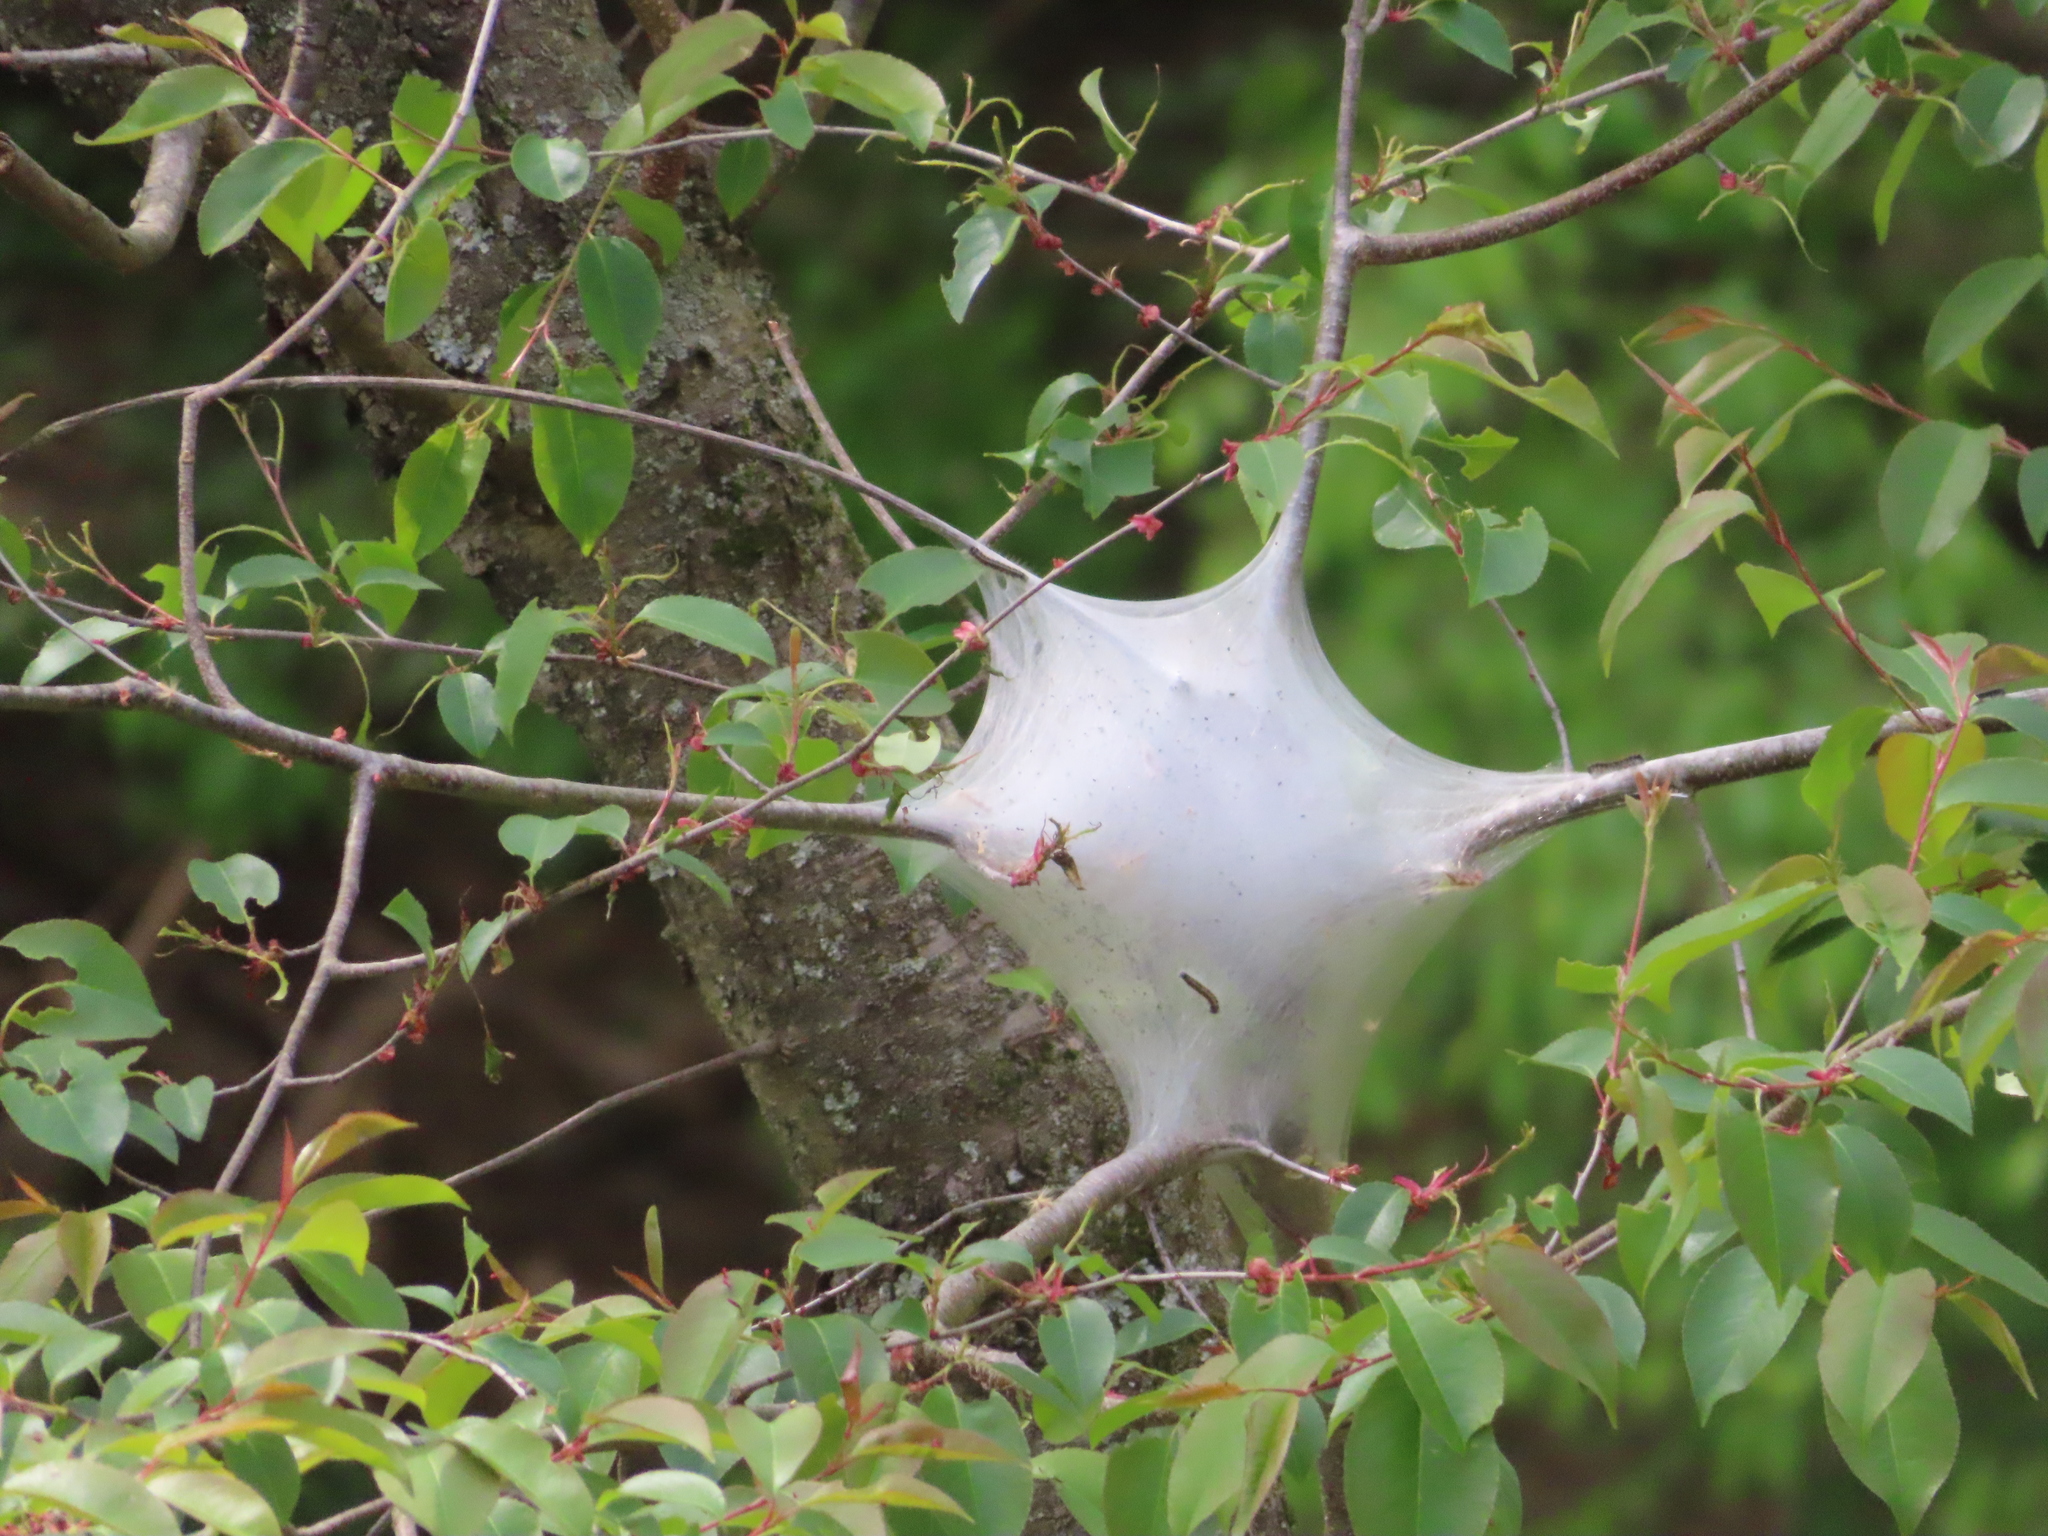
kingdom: Animalia
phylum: Arthropoda
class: Insecta
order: Lepidoptera
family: Lasiocampidae
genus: Malacosoma
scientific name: Malacosoma americana
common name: Eastern tent caterpillar moth
